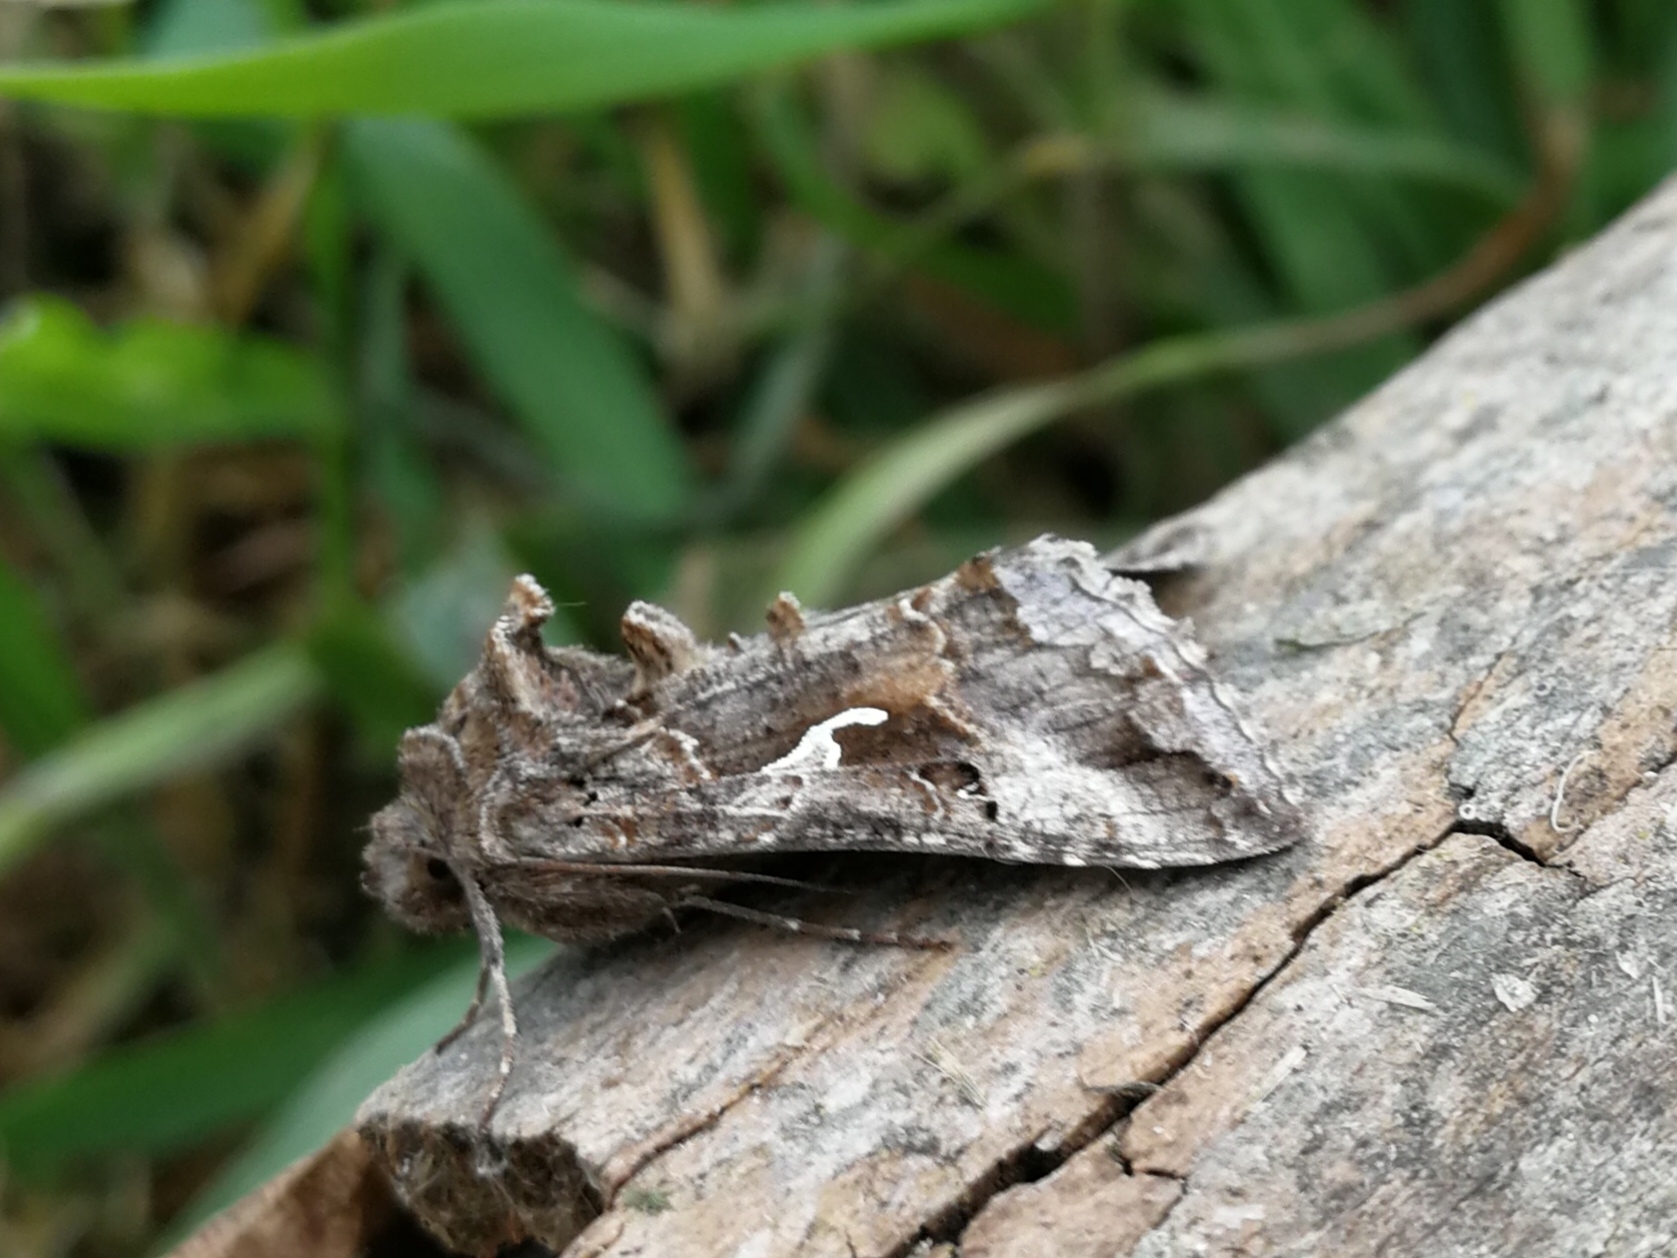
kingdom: Animalia
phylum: Arthropoda
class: Insecta
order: Lepidoptera
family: Noctuidae
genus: Autographa
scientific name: Autographa gamma
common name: Silver y
